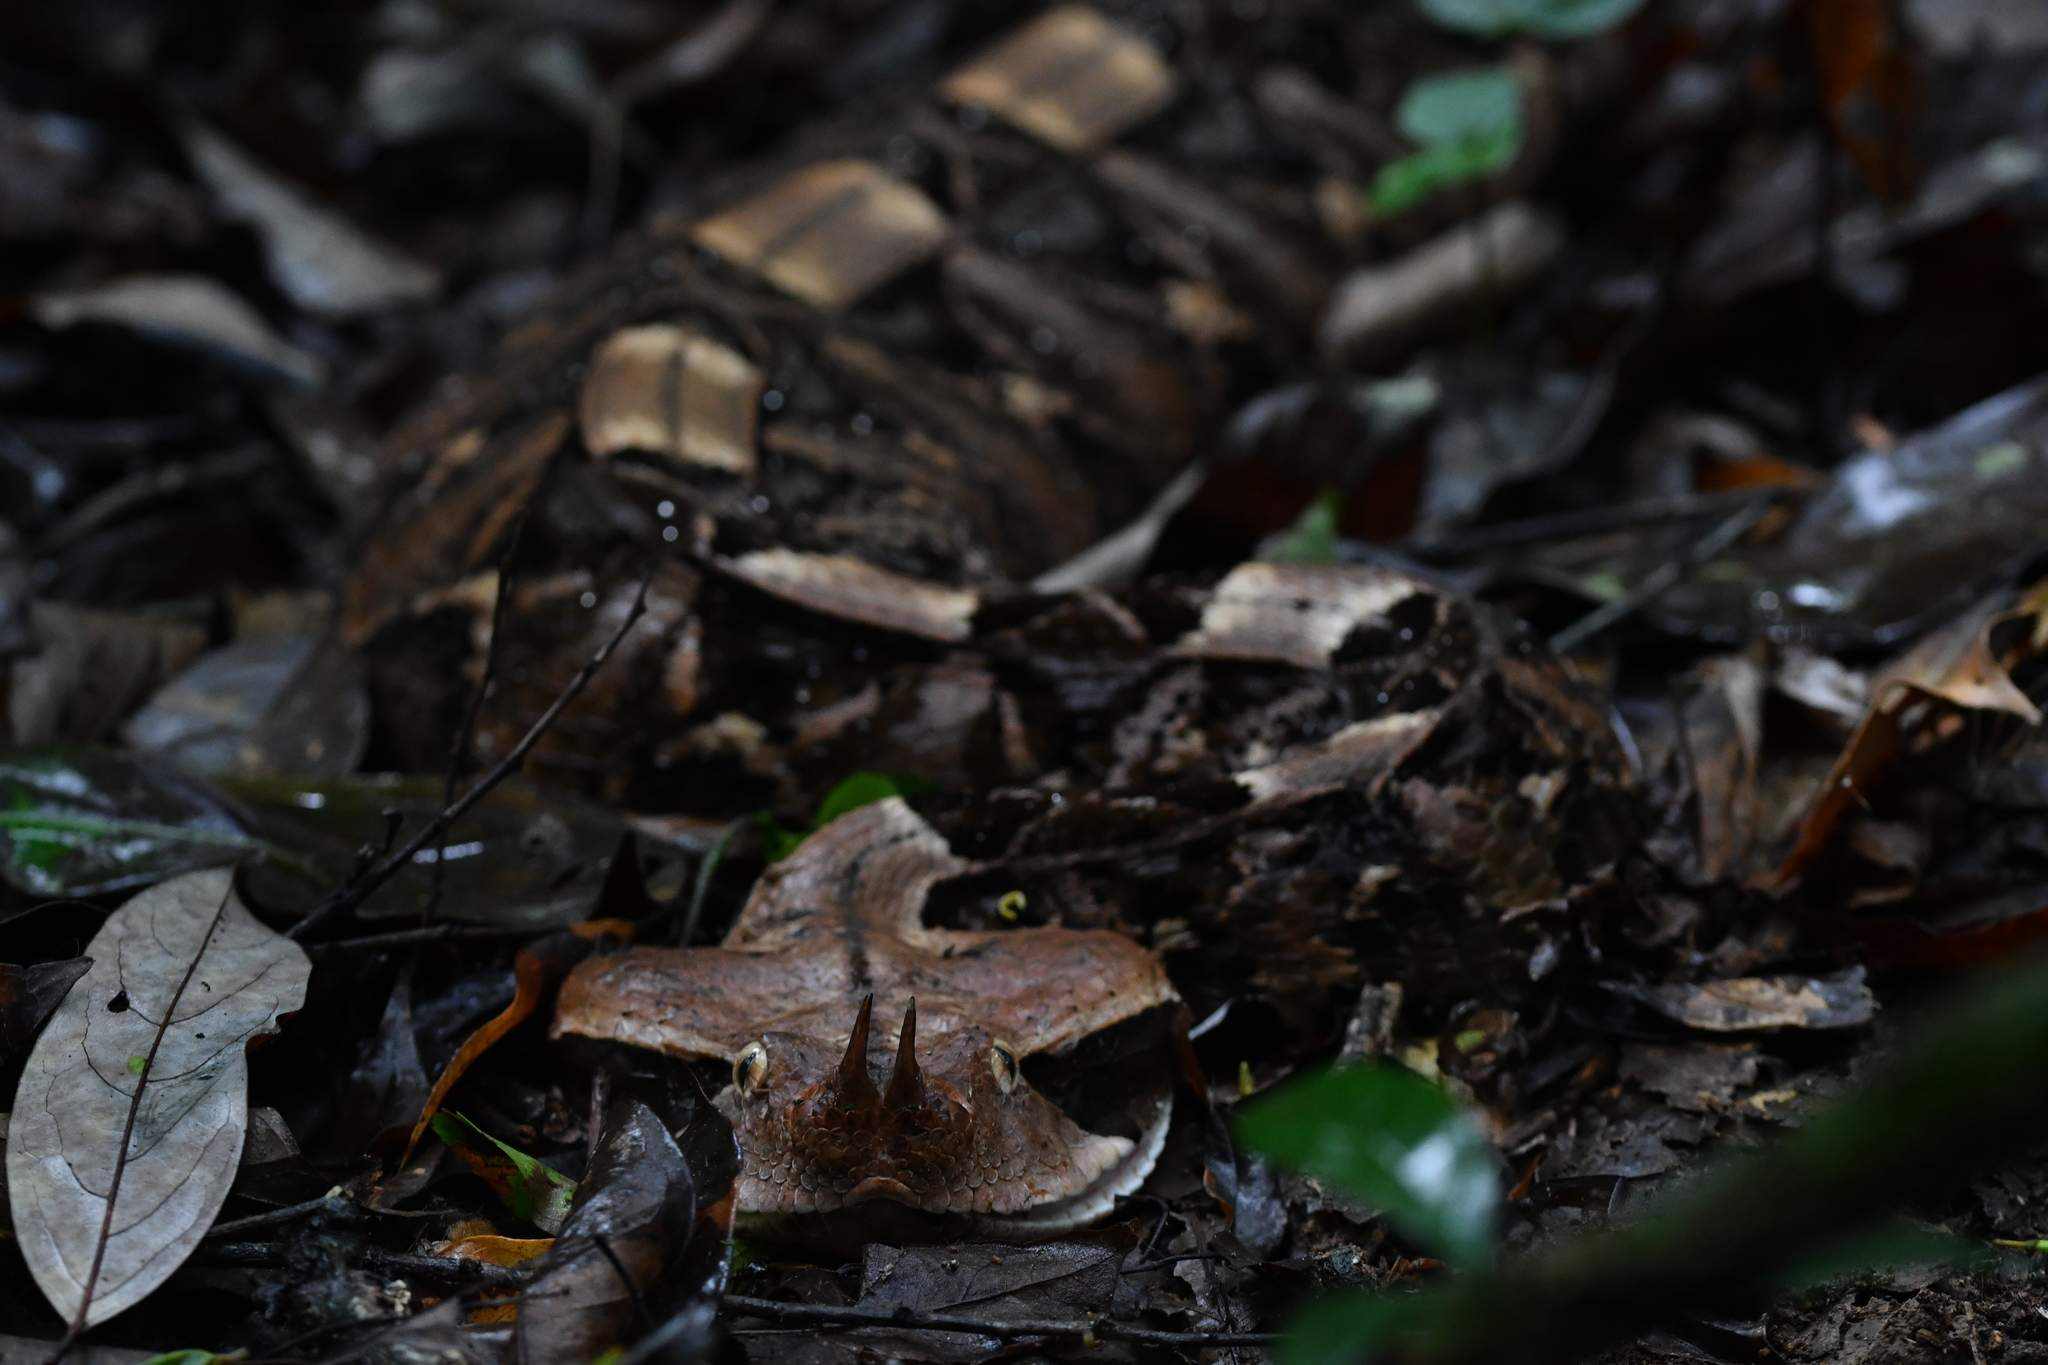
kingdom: Animalia
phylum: Chordata
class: Squamata
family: Viperidae
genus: Bitis
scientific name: Bitis rhinoceros
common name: Rhinoceros viper
